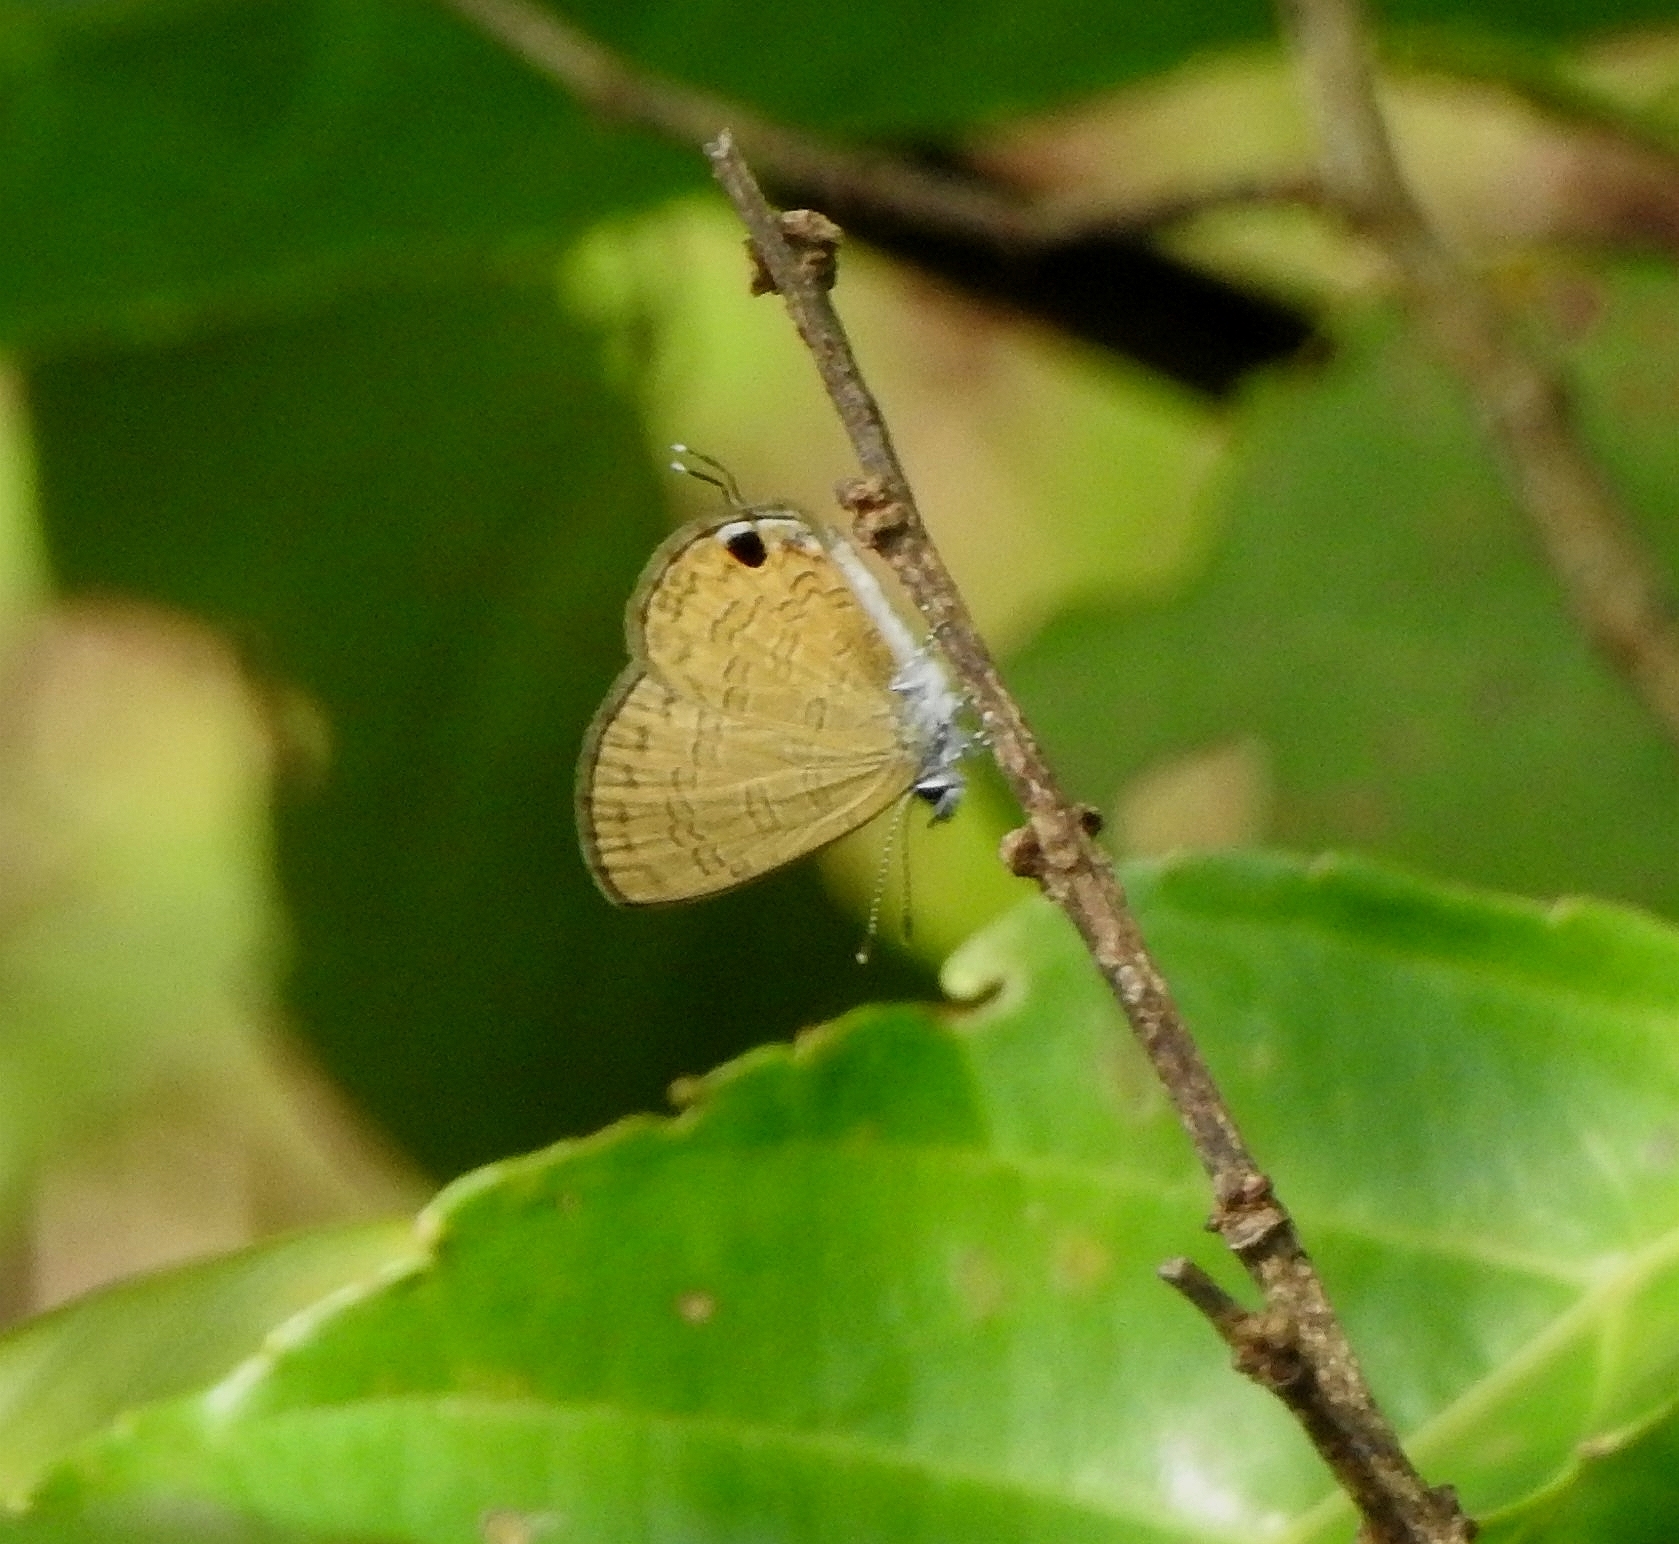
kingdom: Animalia
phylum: Arthropoda
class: Insecta
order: Lepidoptera
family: Lycaenidae
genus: Prosotas
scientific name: Prosotas nora
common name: Common line blue
